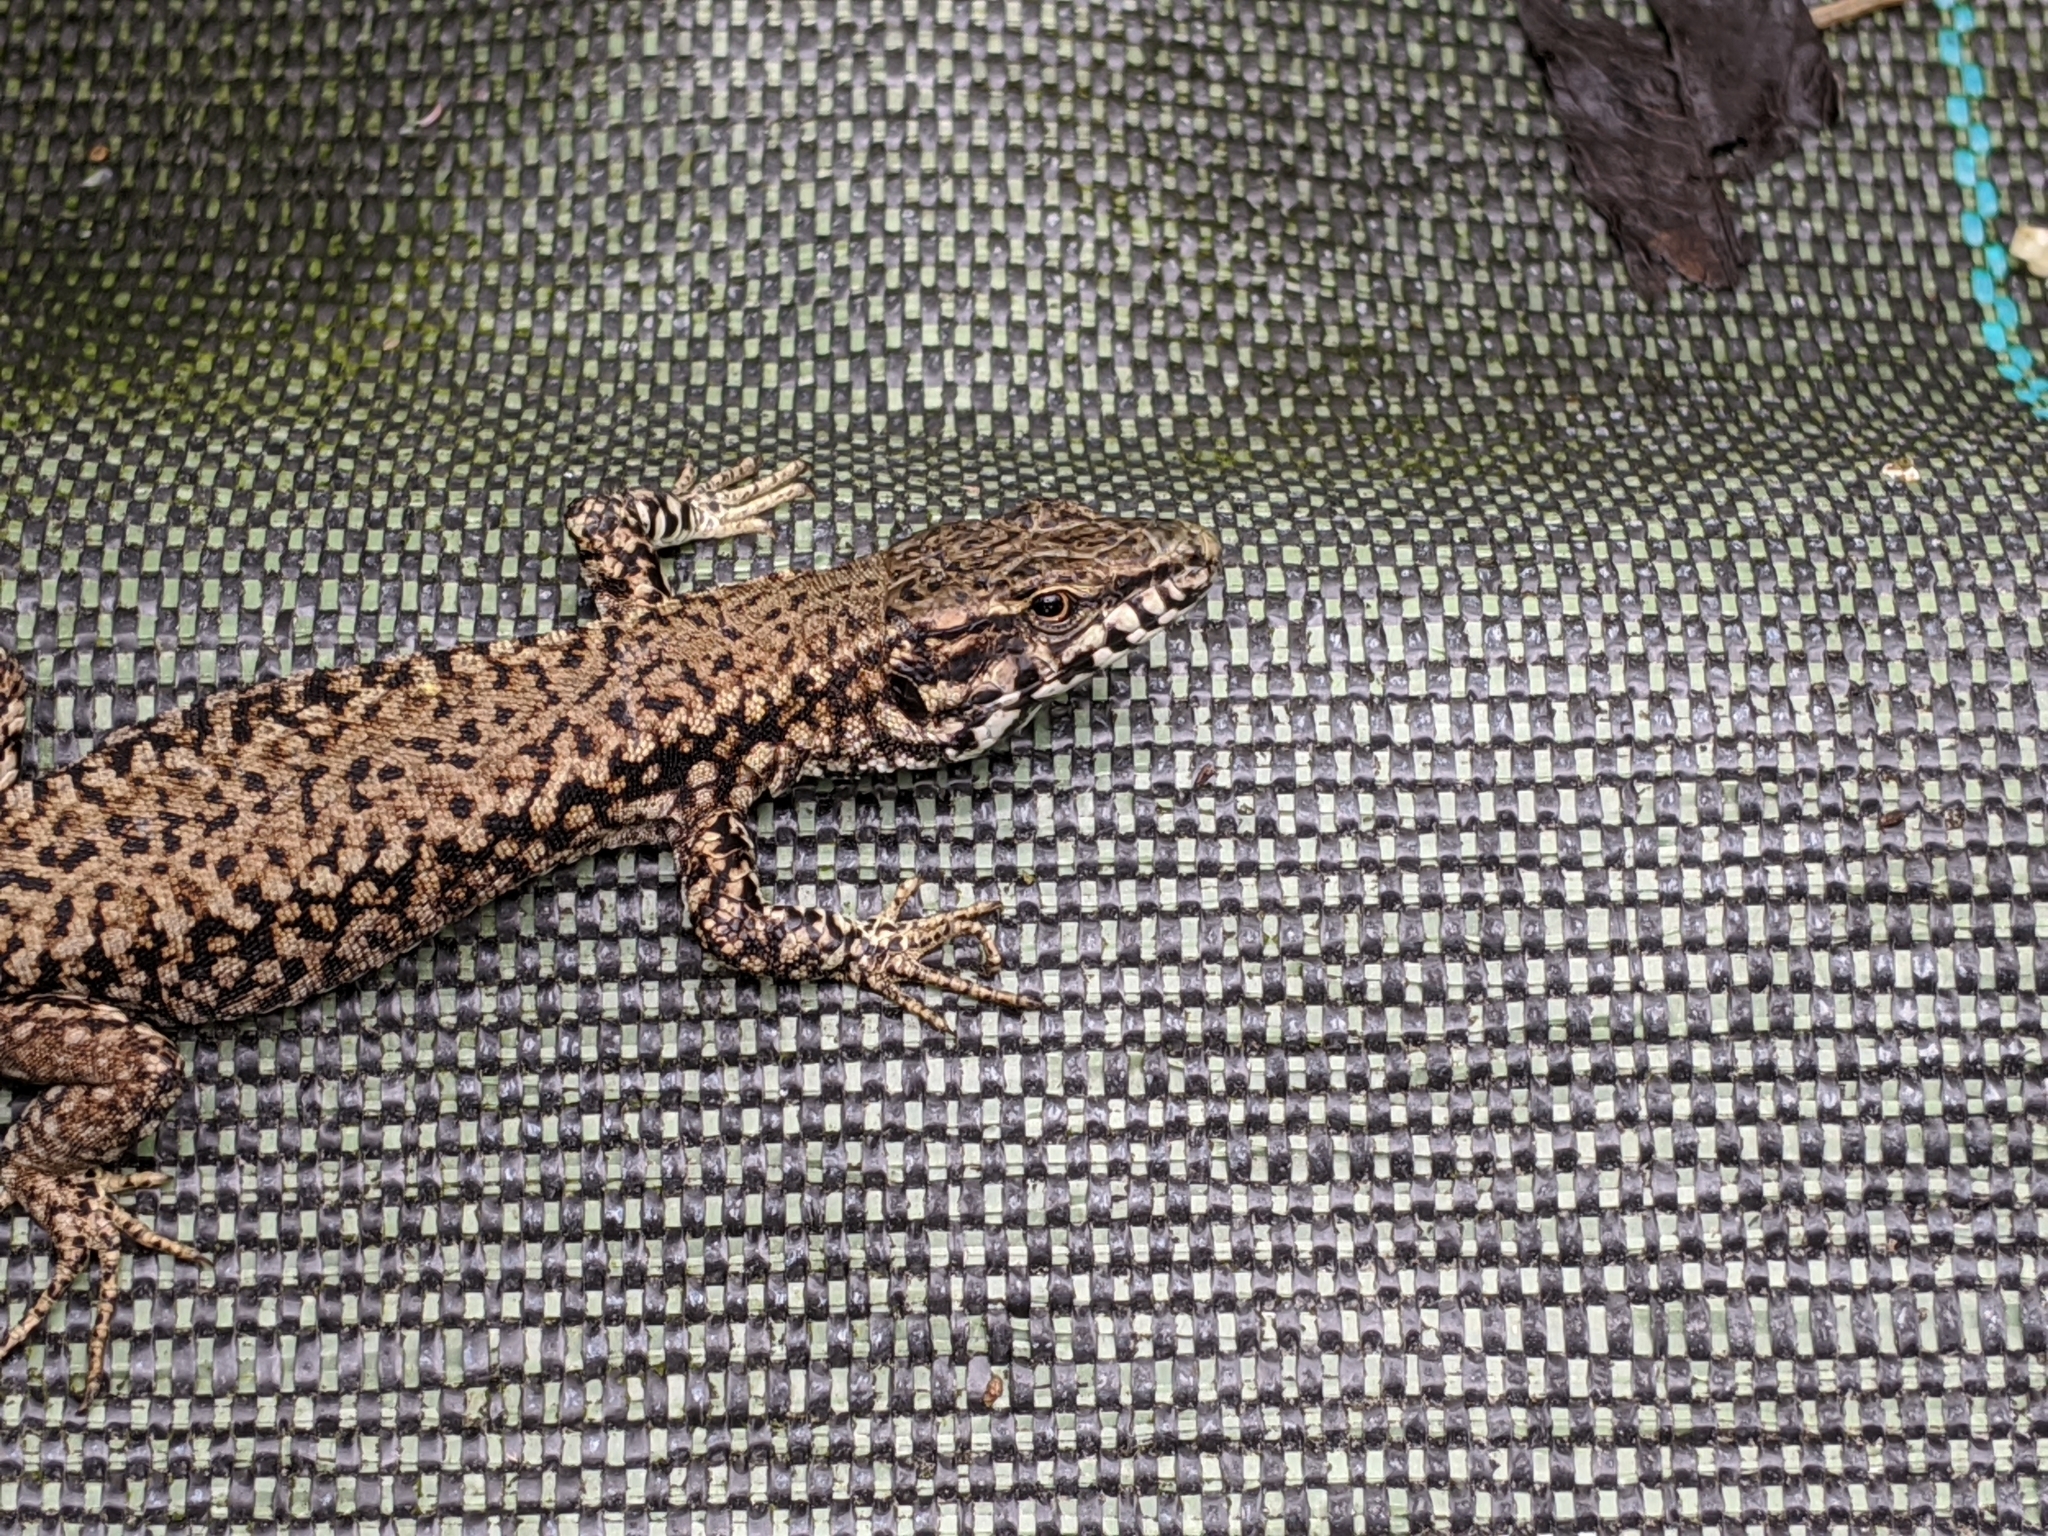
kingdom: Animalia
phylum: Chordata
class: Squamata
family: Lacertidae
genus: Podarcis
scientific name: Podarcis muralis
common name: Common wall lizard
